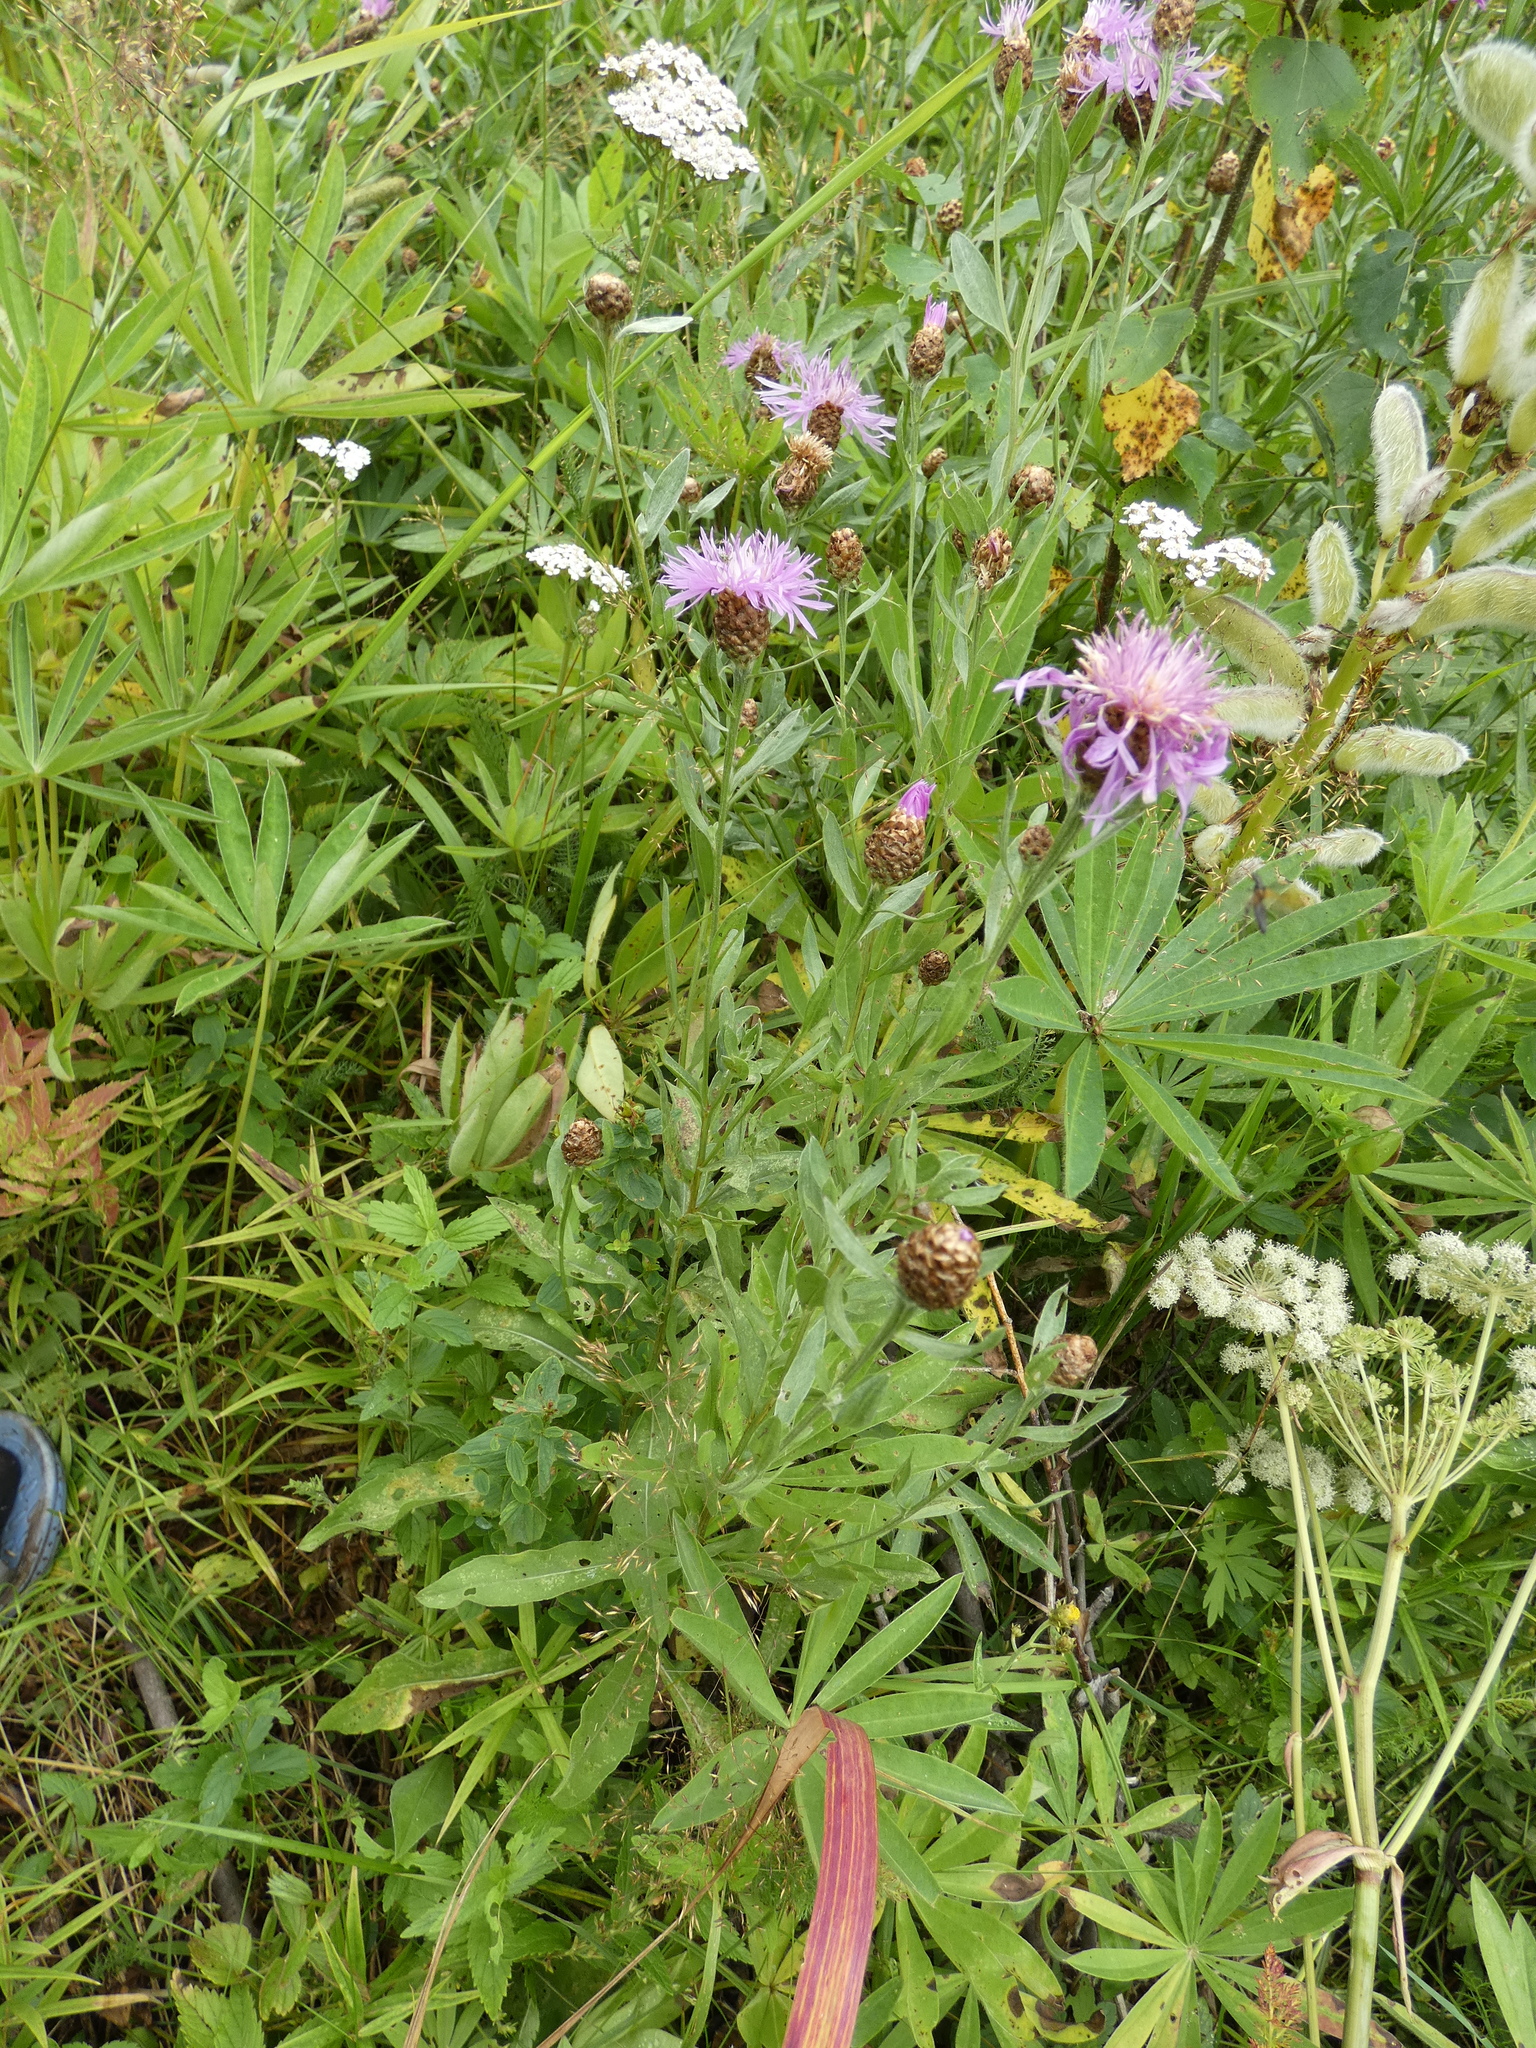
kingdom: Plantae
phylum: Tracheophyta
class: Magnoliopsida
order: Asterales
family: Asteraceae
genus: Centaurea
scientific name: Centaurea jacea
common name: Brown knapweed
